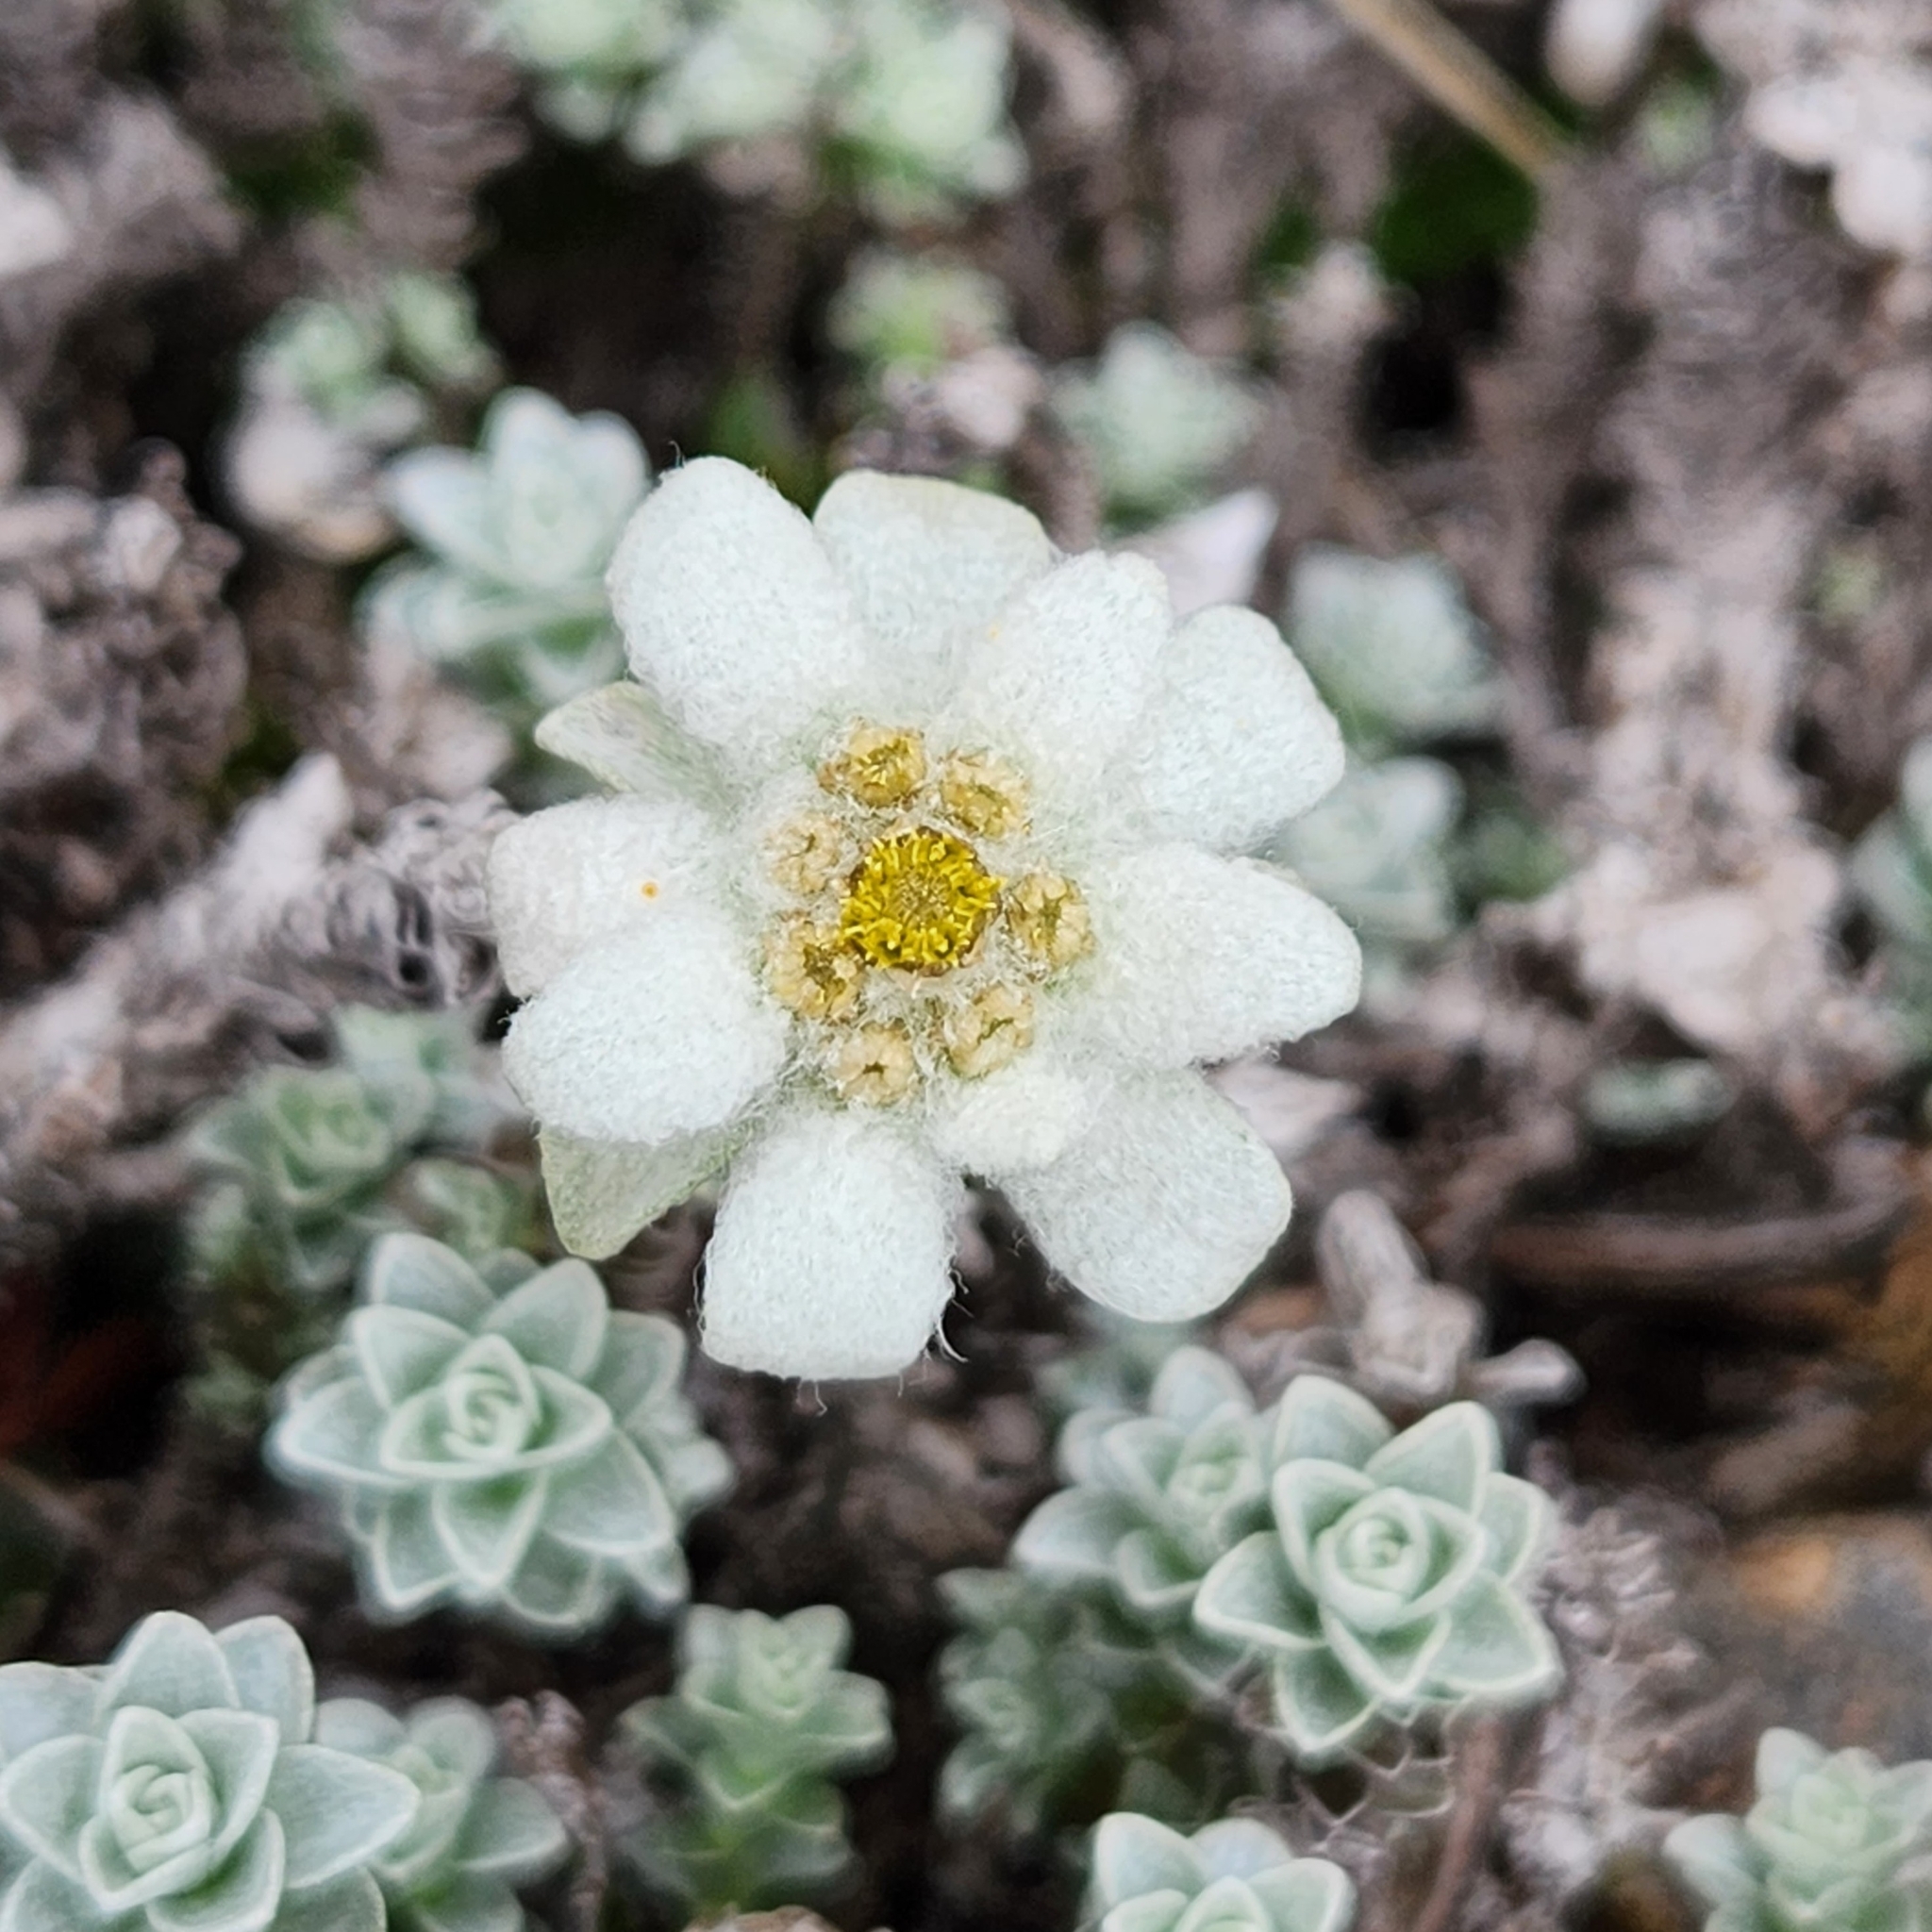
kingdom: Plantae
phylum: Tracheophyta
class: Magnoliopsida
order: Asterales
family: Asteraceae
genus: Leucogenes
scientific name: Leucogenes grandiceps
